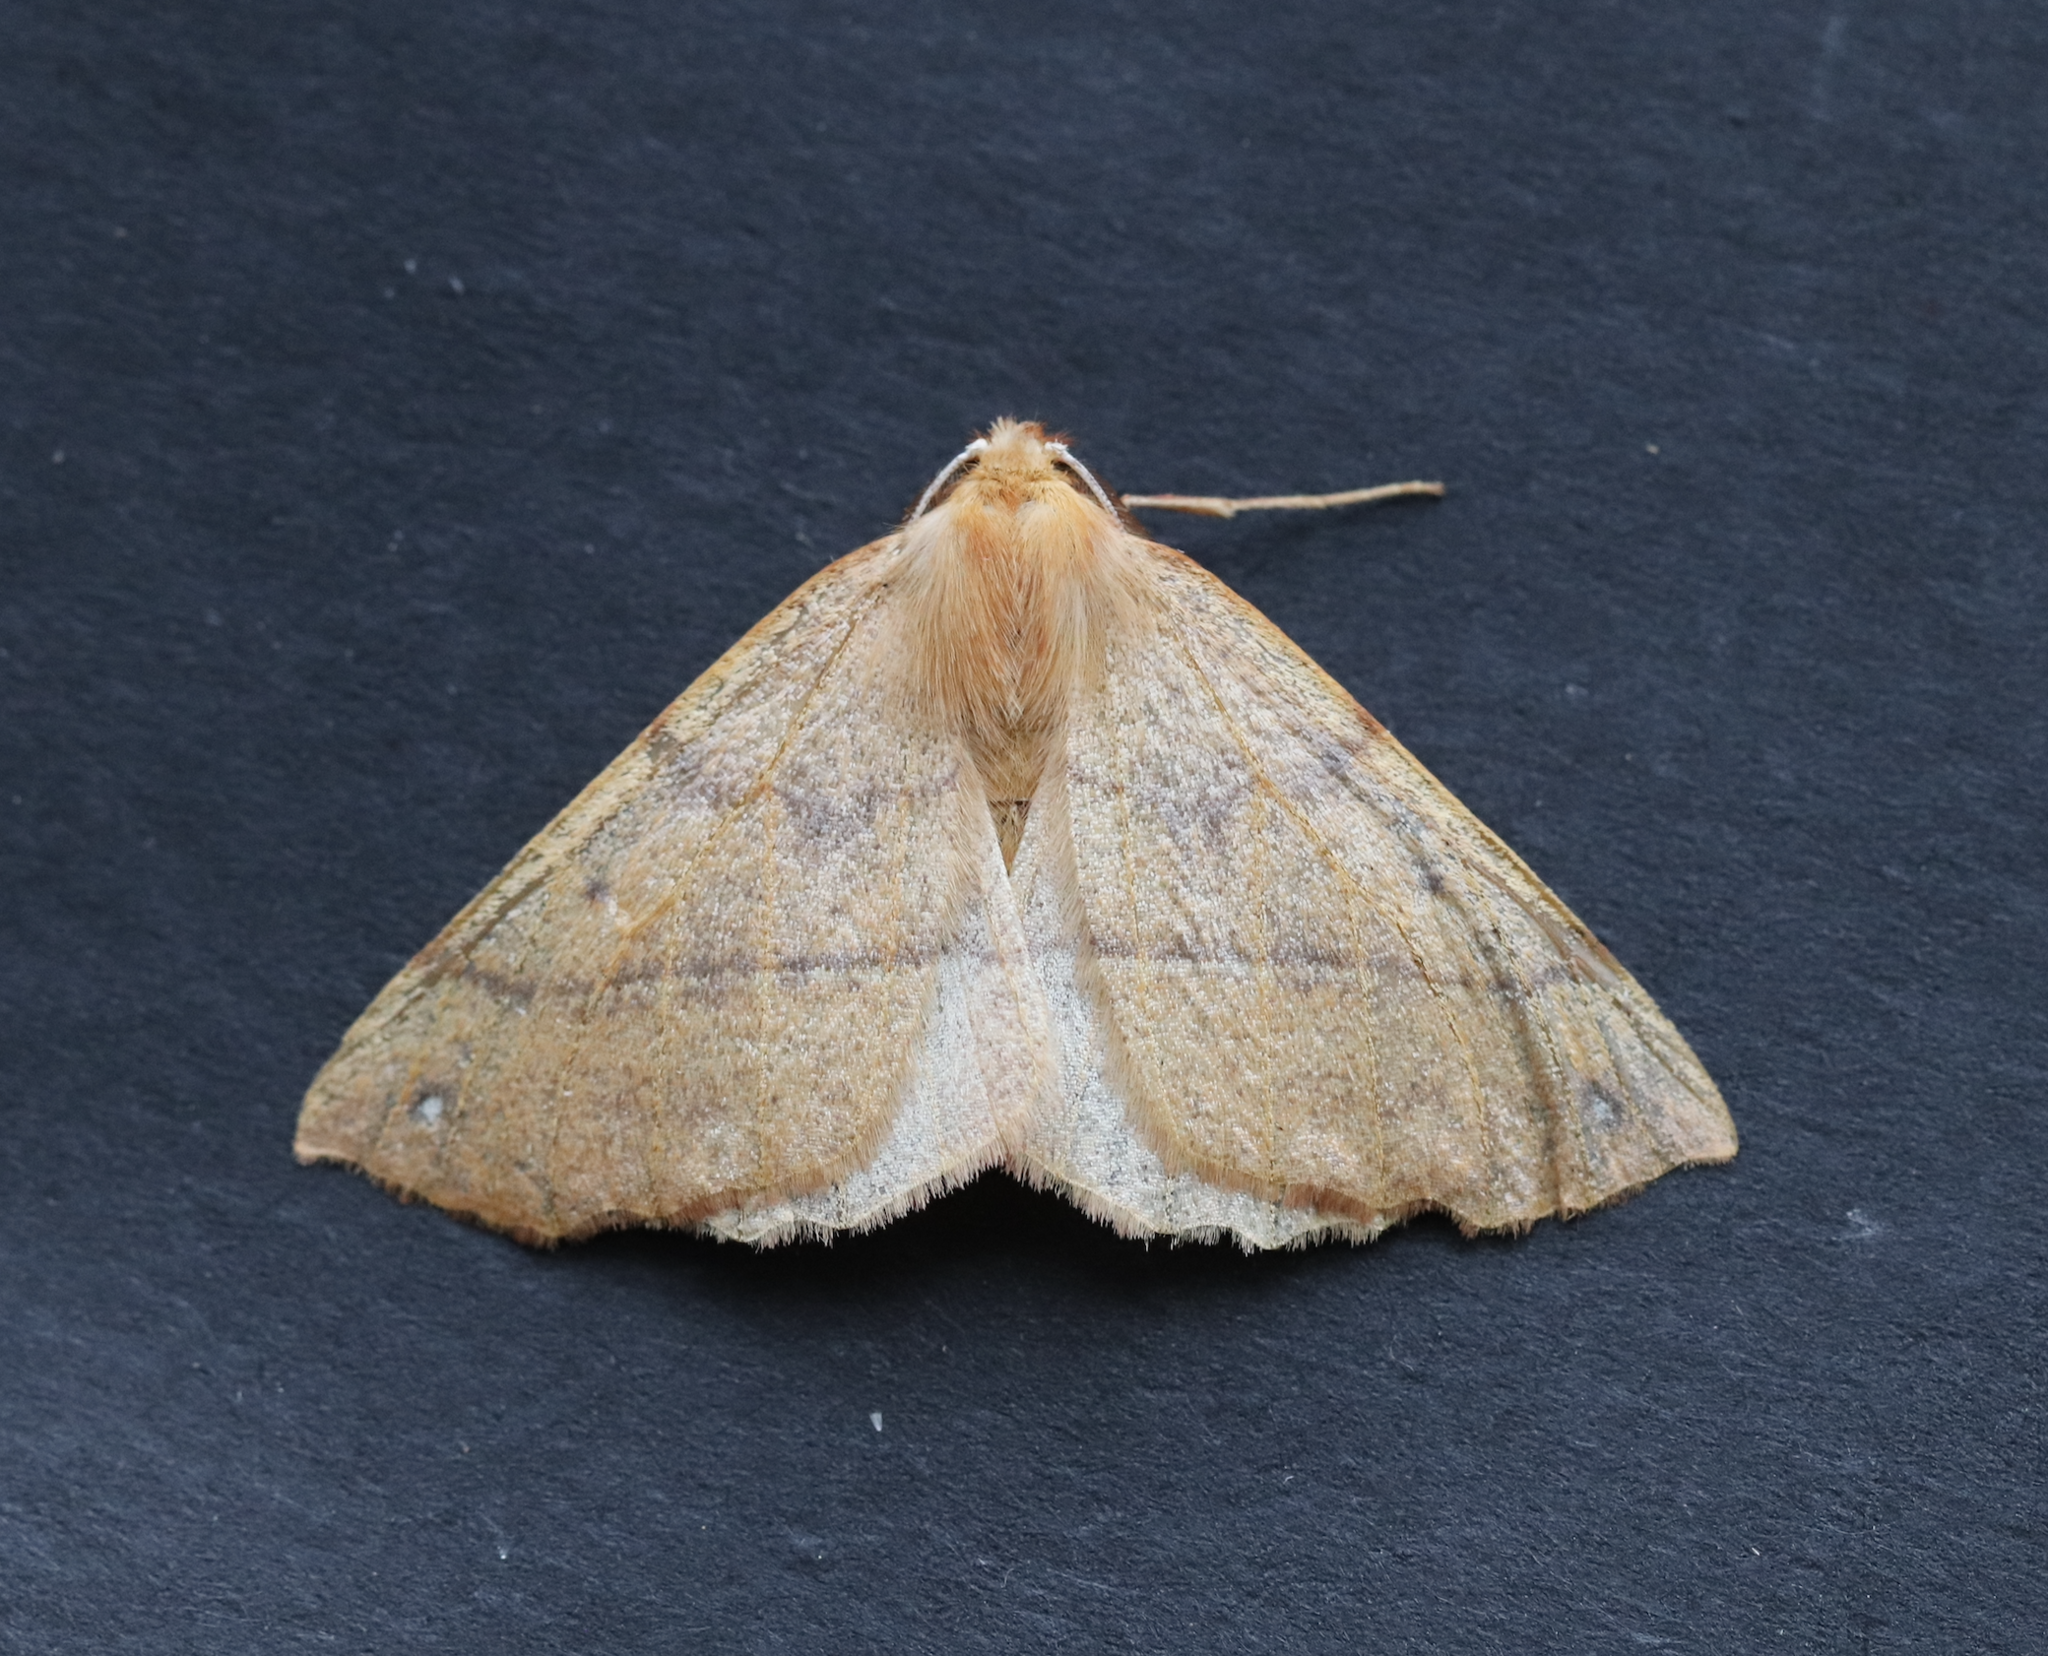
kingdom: Animalia
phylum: Arthropoda
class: Insecta
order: Lepidoptera
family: Geometridae
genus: Colotois
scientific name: Colotois pennaria
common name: Feathered thorn
